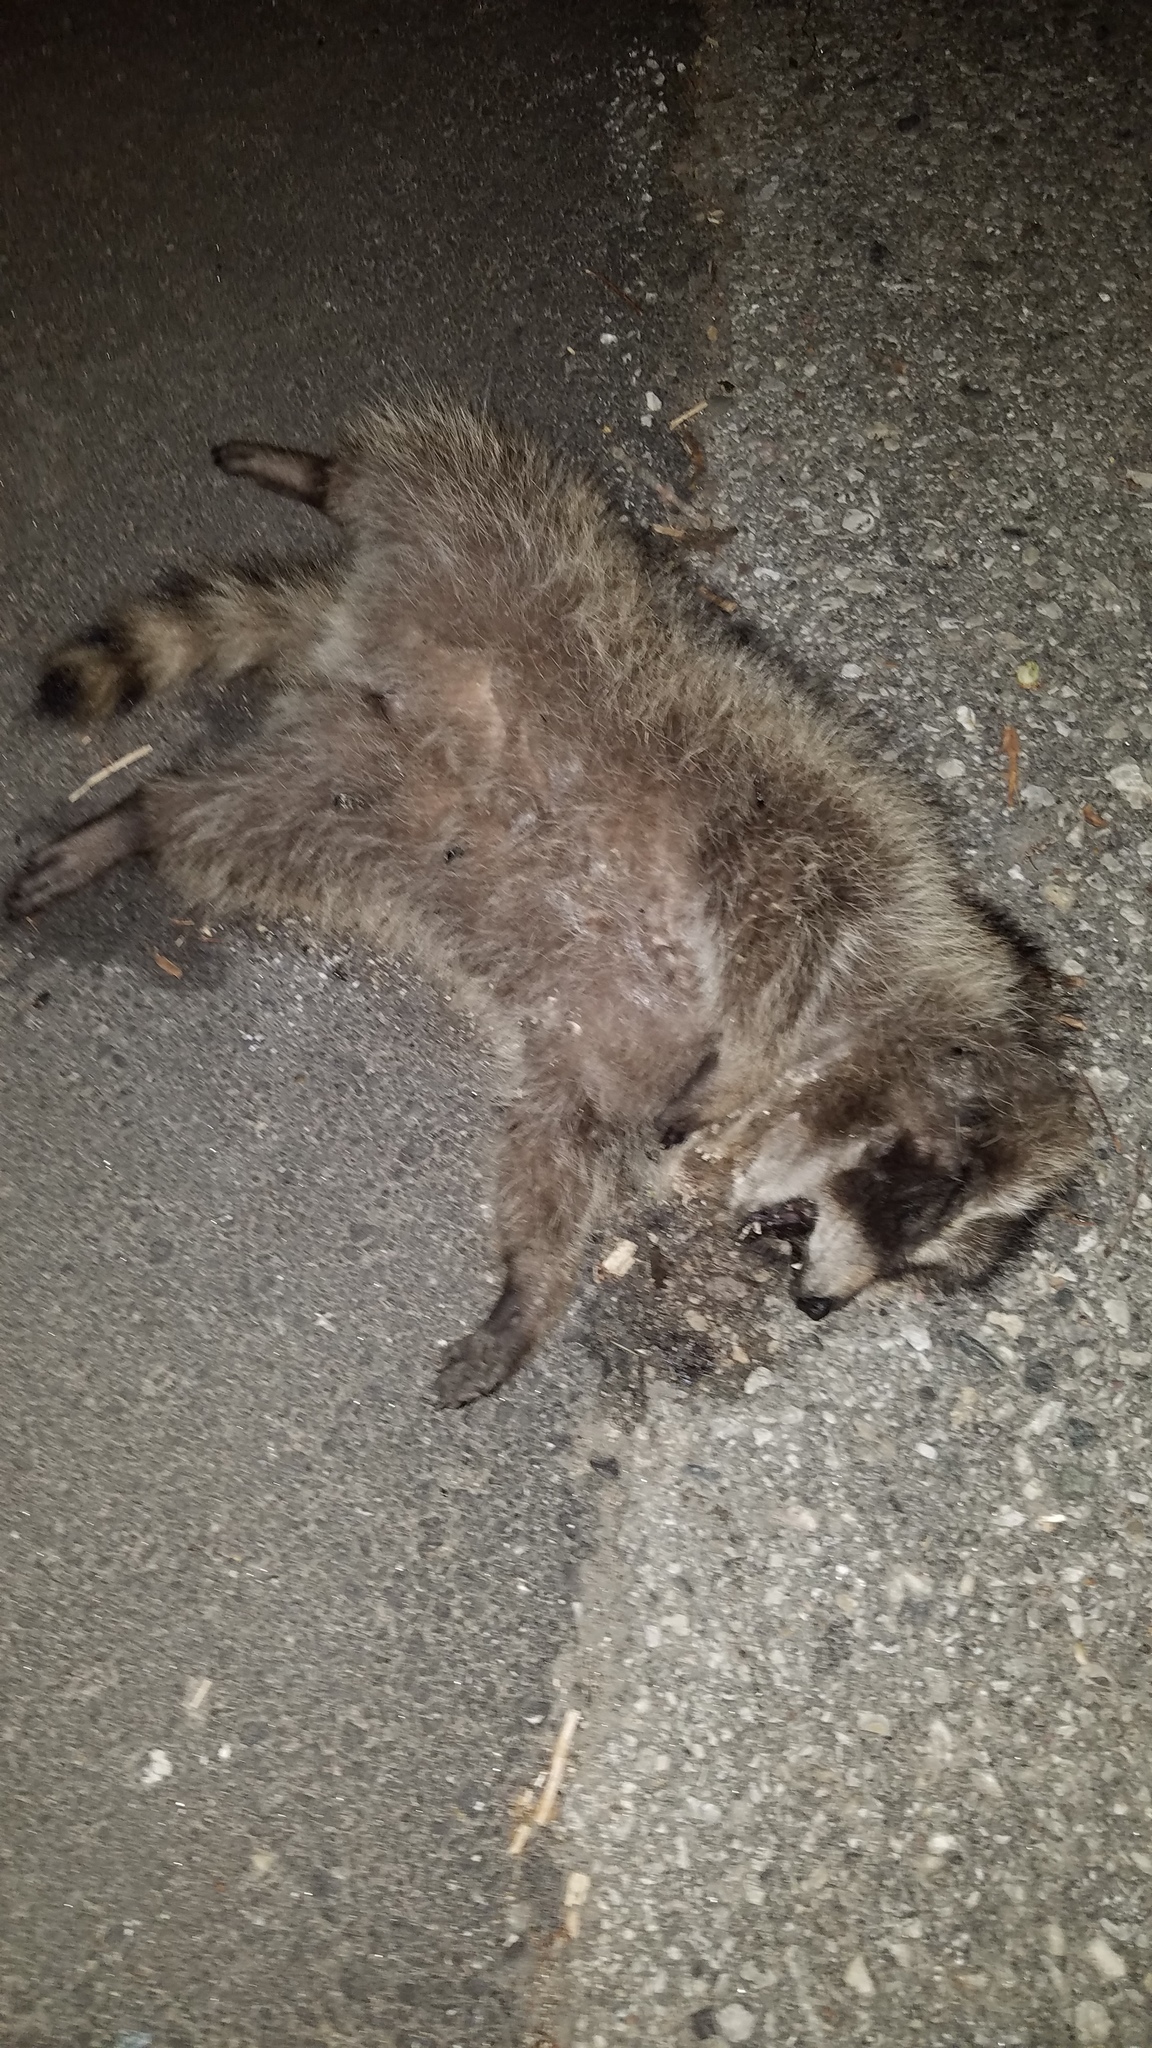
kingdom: Animalia
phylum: Chordata
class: Mammalia
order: Carnivora
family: Procyonidae
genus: Procyon
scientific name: Procyon lotor
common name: Raccoon
